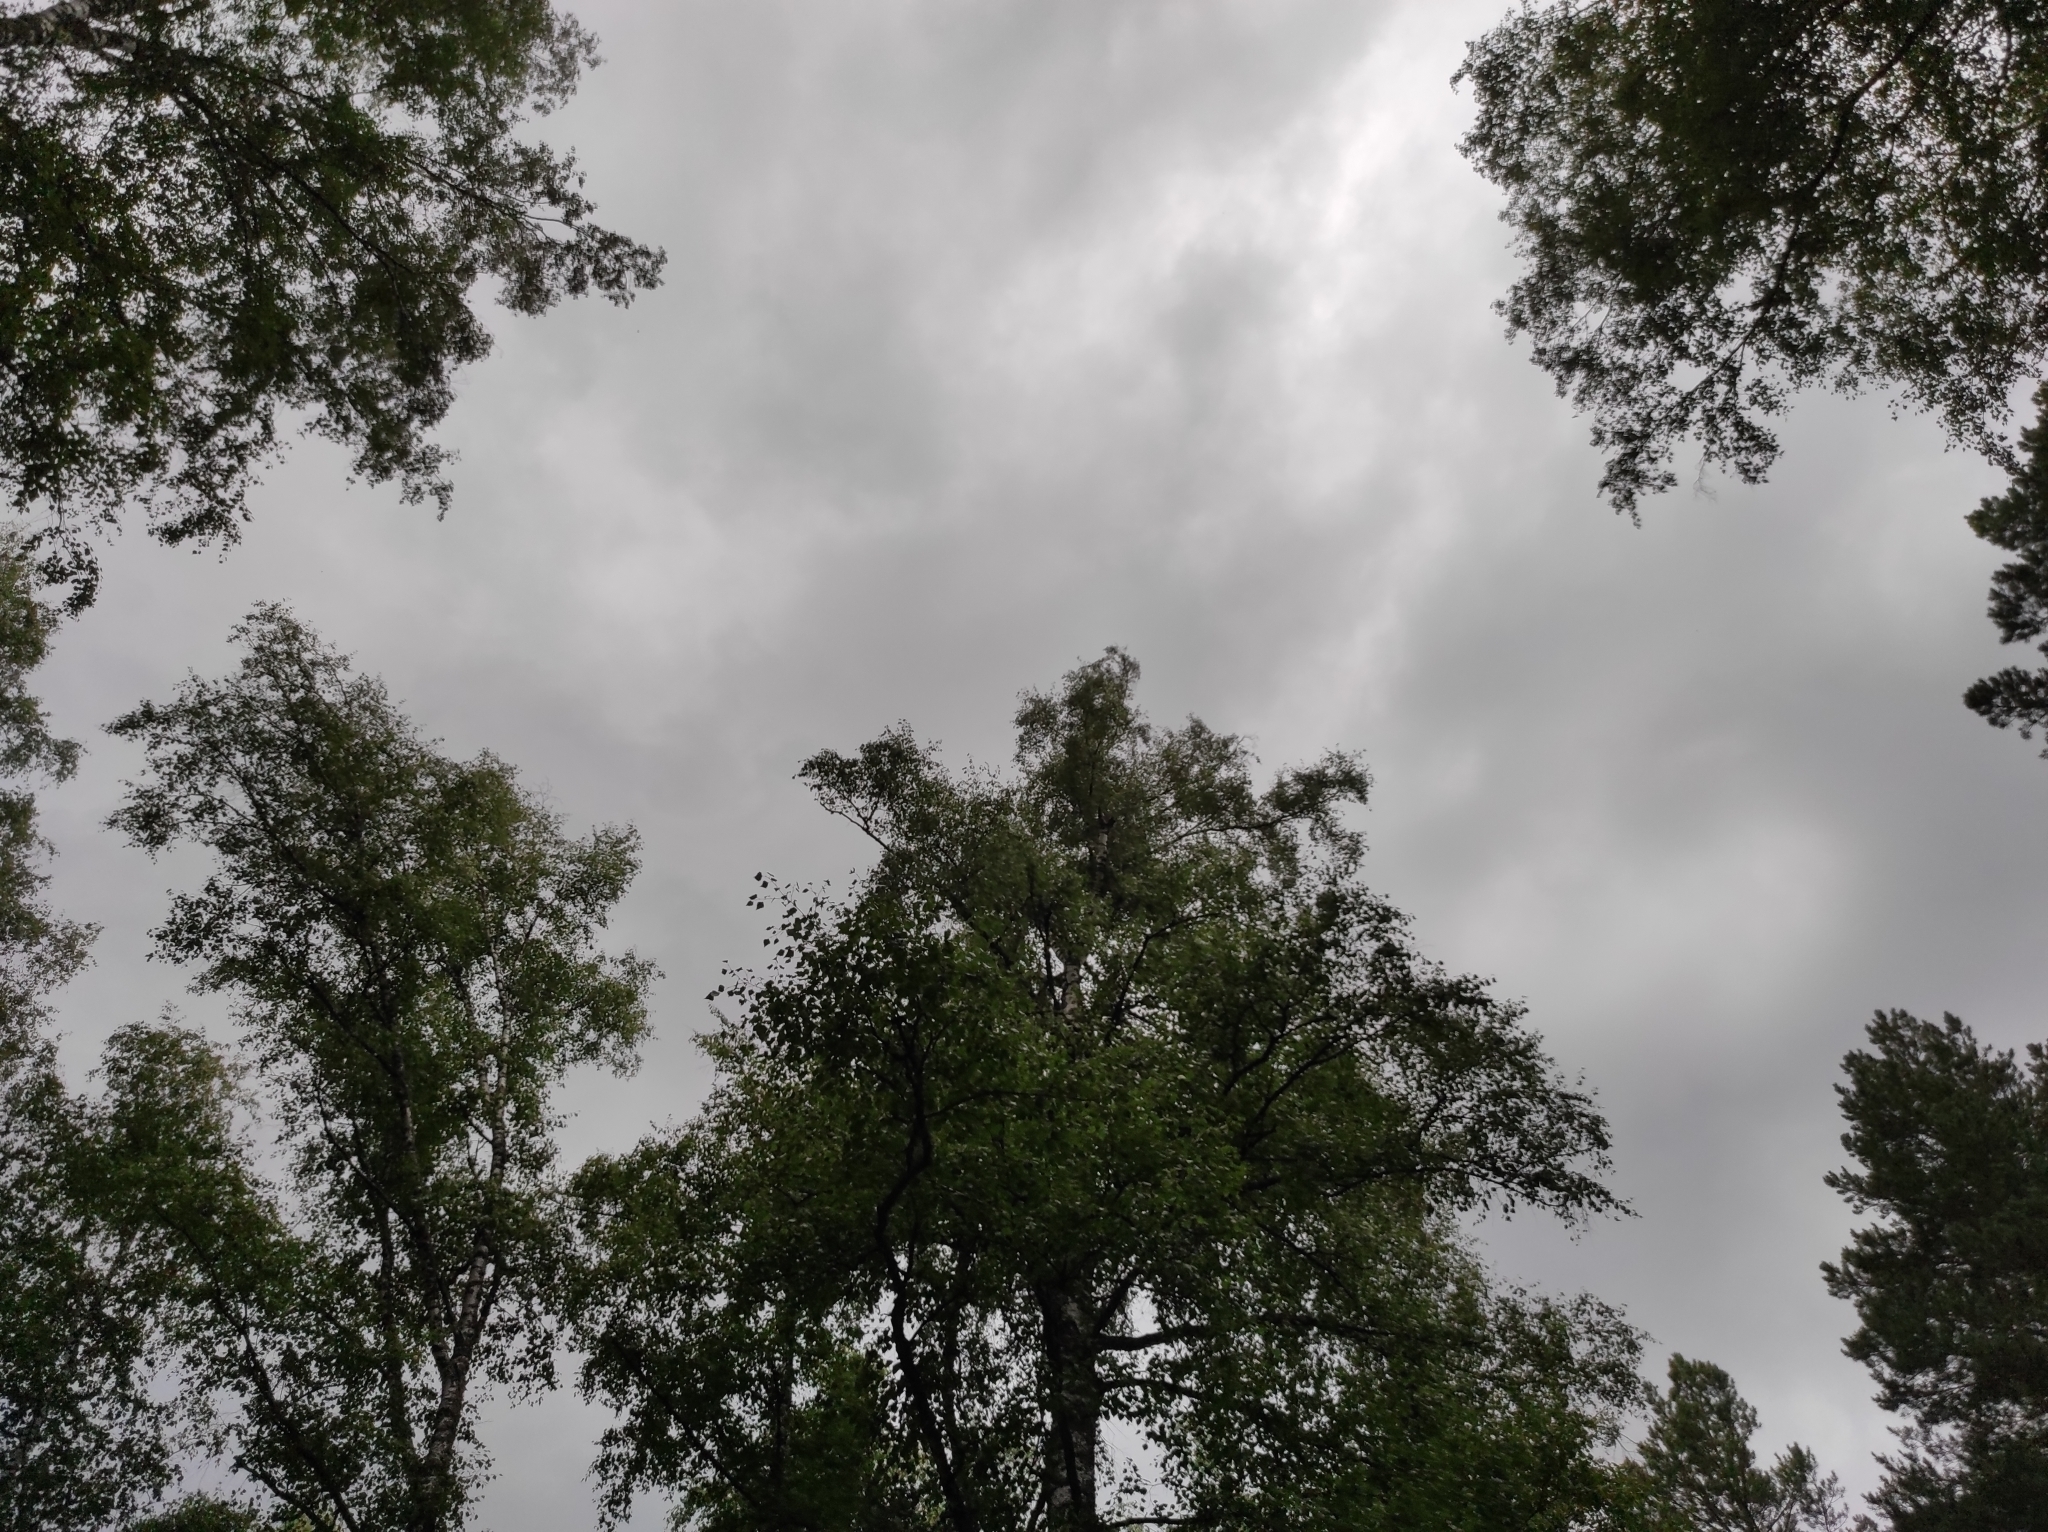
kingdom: Animalia
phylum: Chordata
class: Aves
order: Strigiformes
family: Strigidae
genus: Asio
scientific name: Asio otus
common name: Long-eared owl
